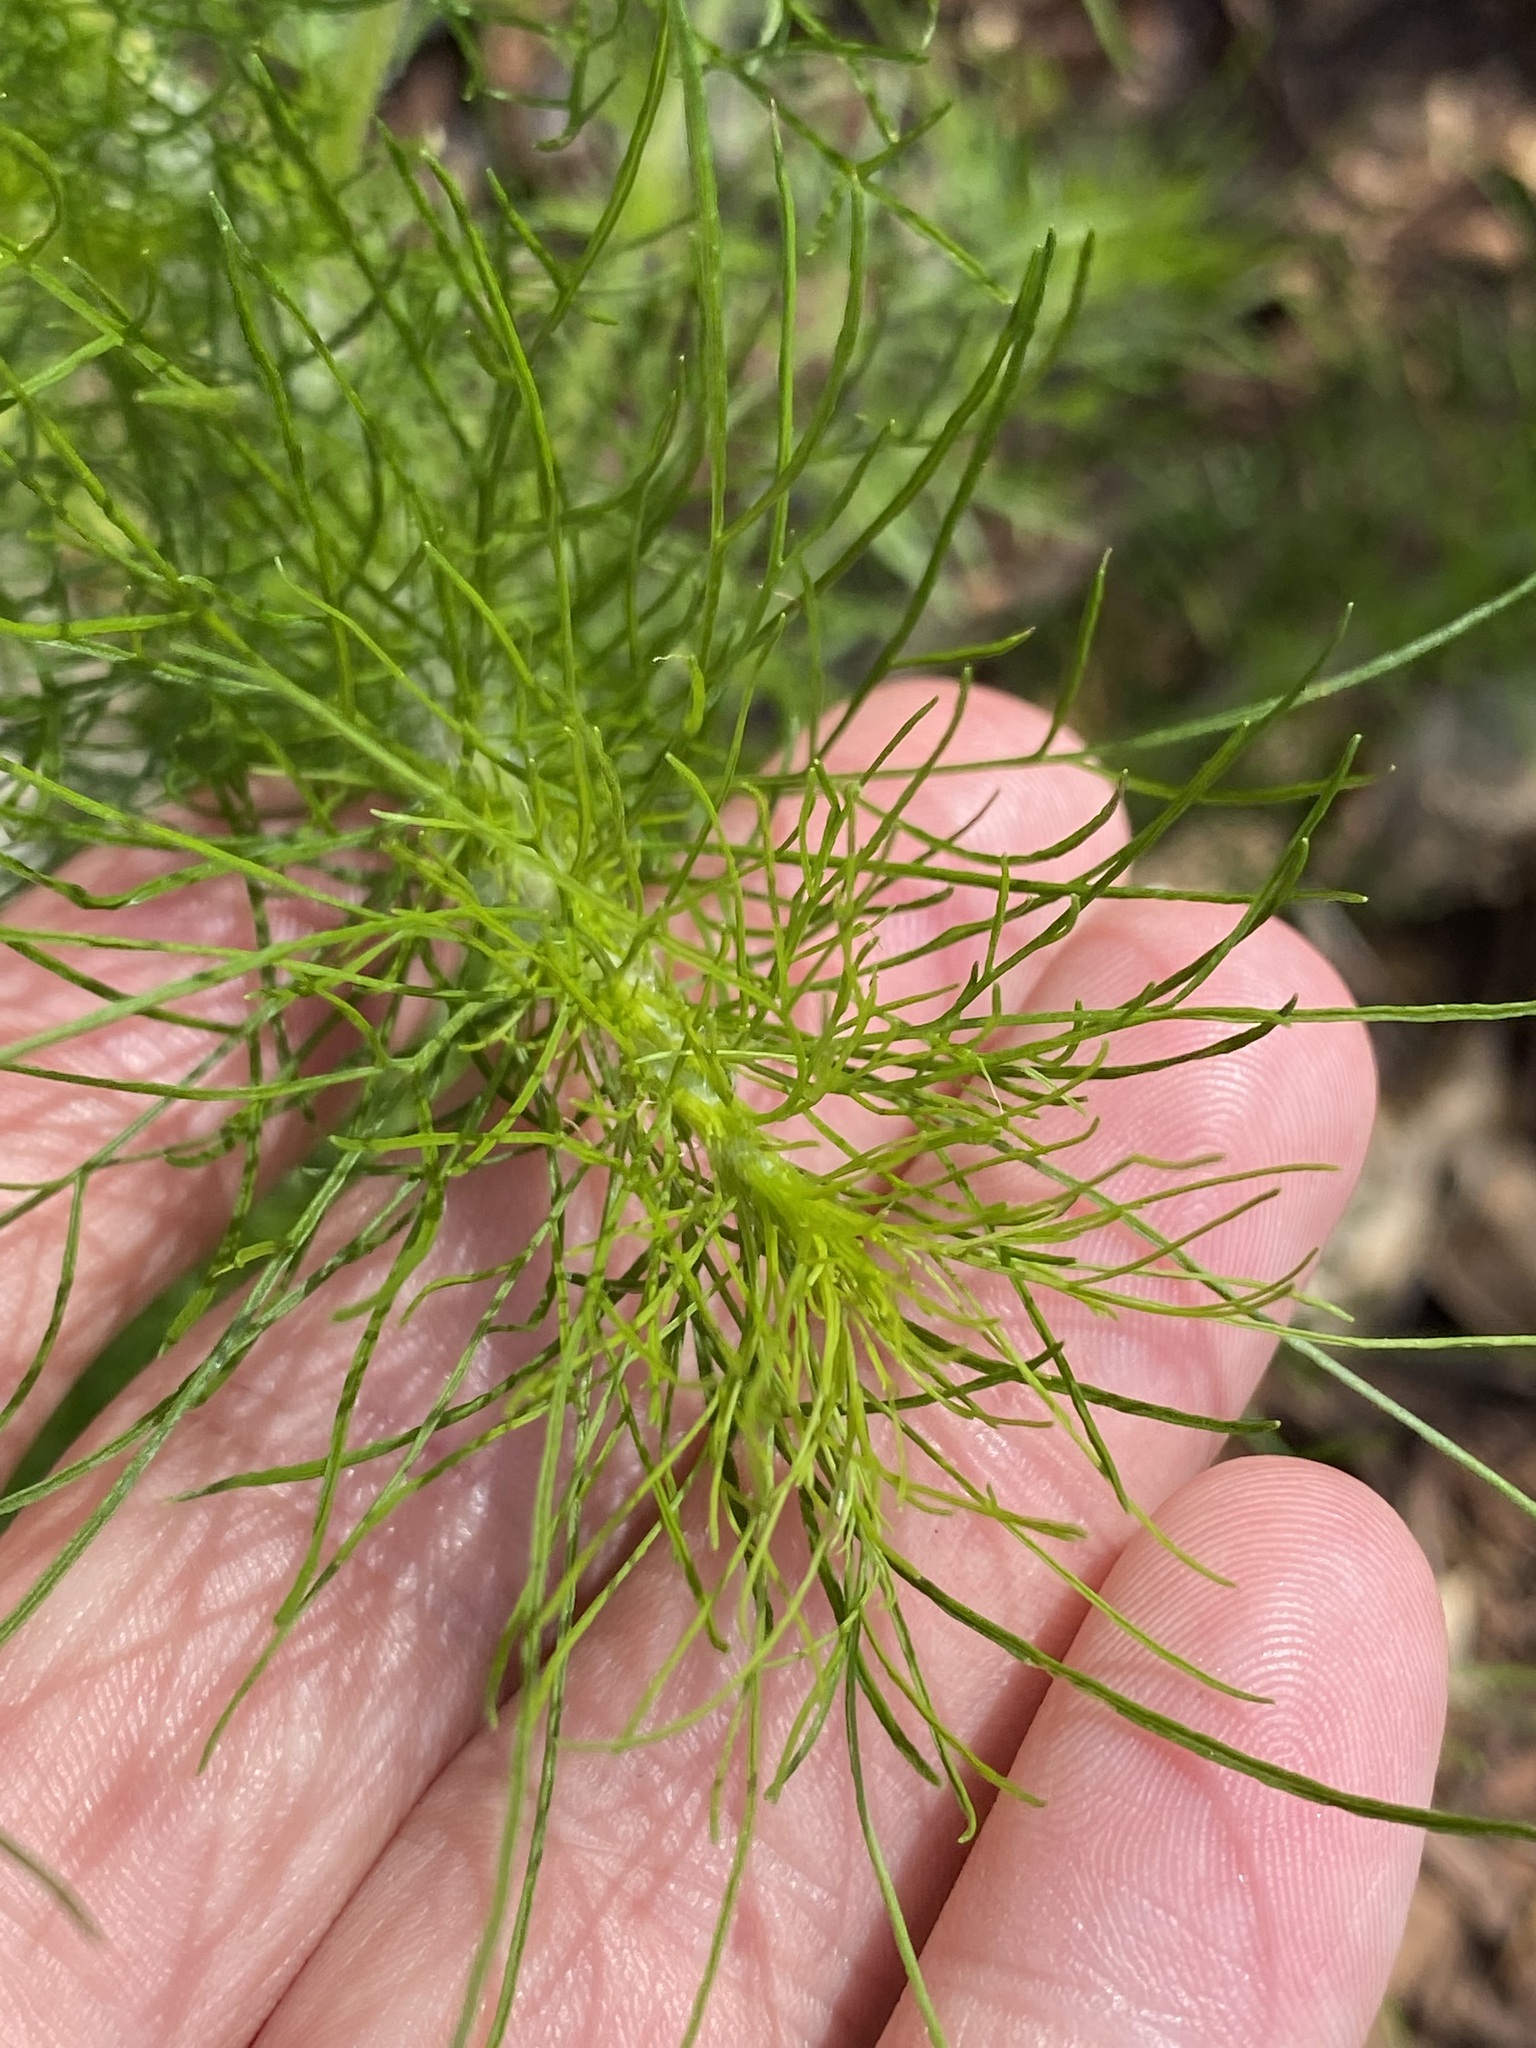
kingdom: Plantae
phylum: Tracheophyta
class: Magnoliopsida
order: Asterales
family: Asteraceae
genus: Eupatorium
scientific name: Eupatorium capillifolium
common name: Dog-fennel
